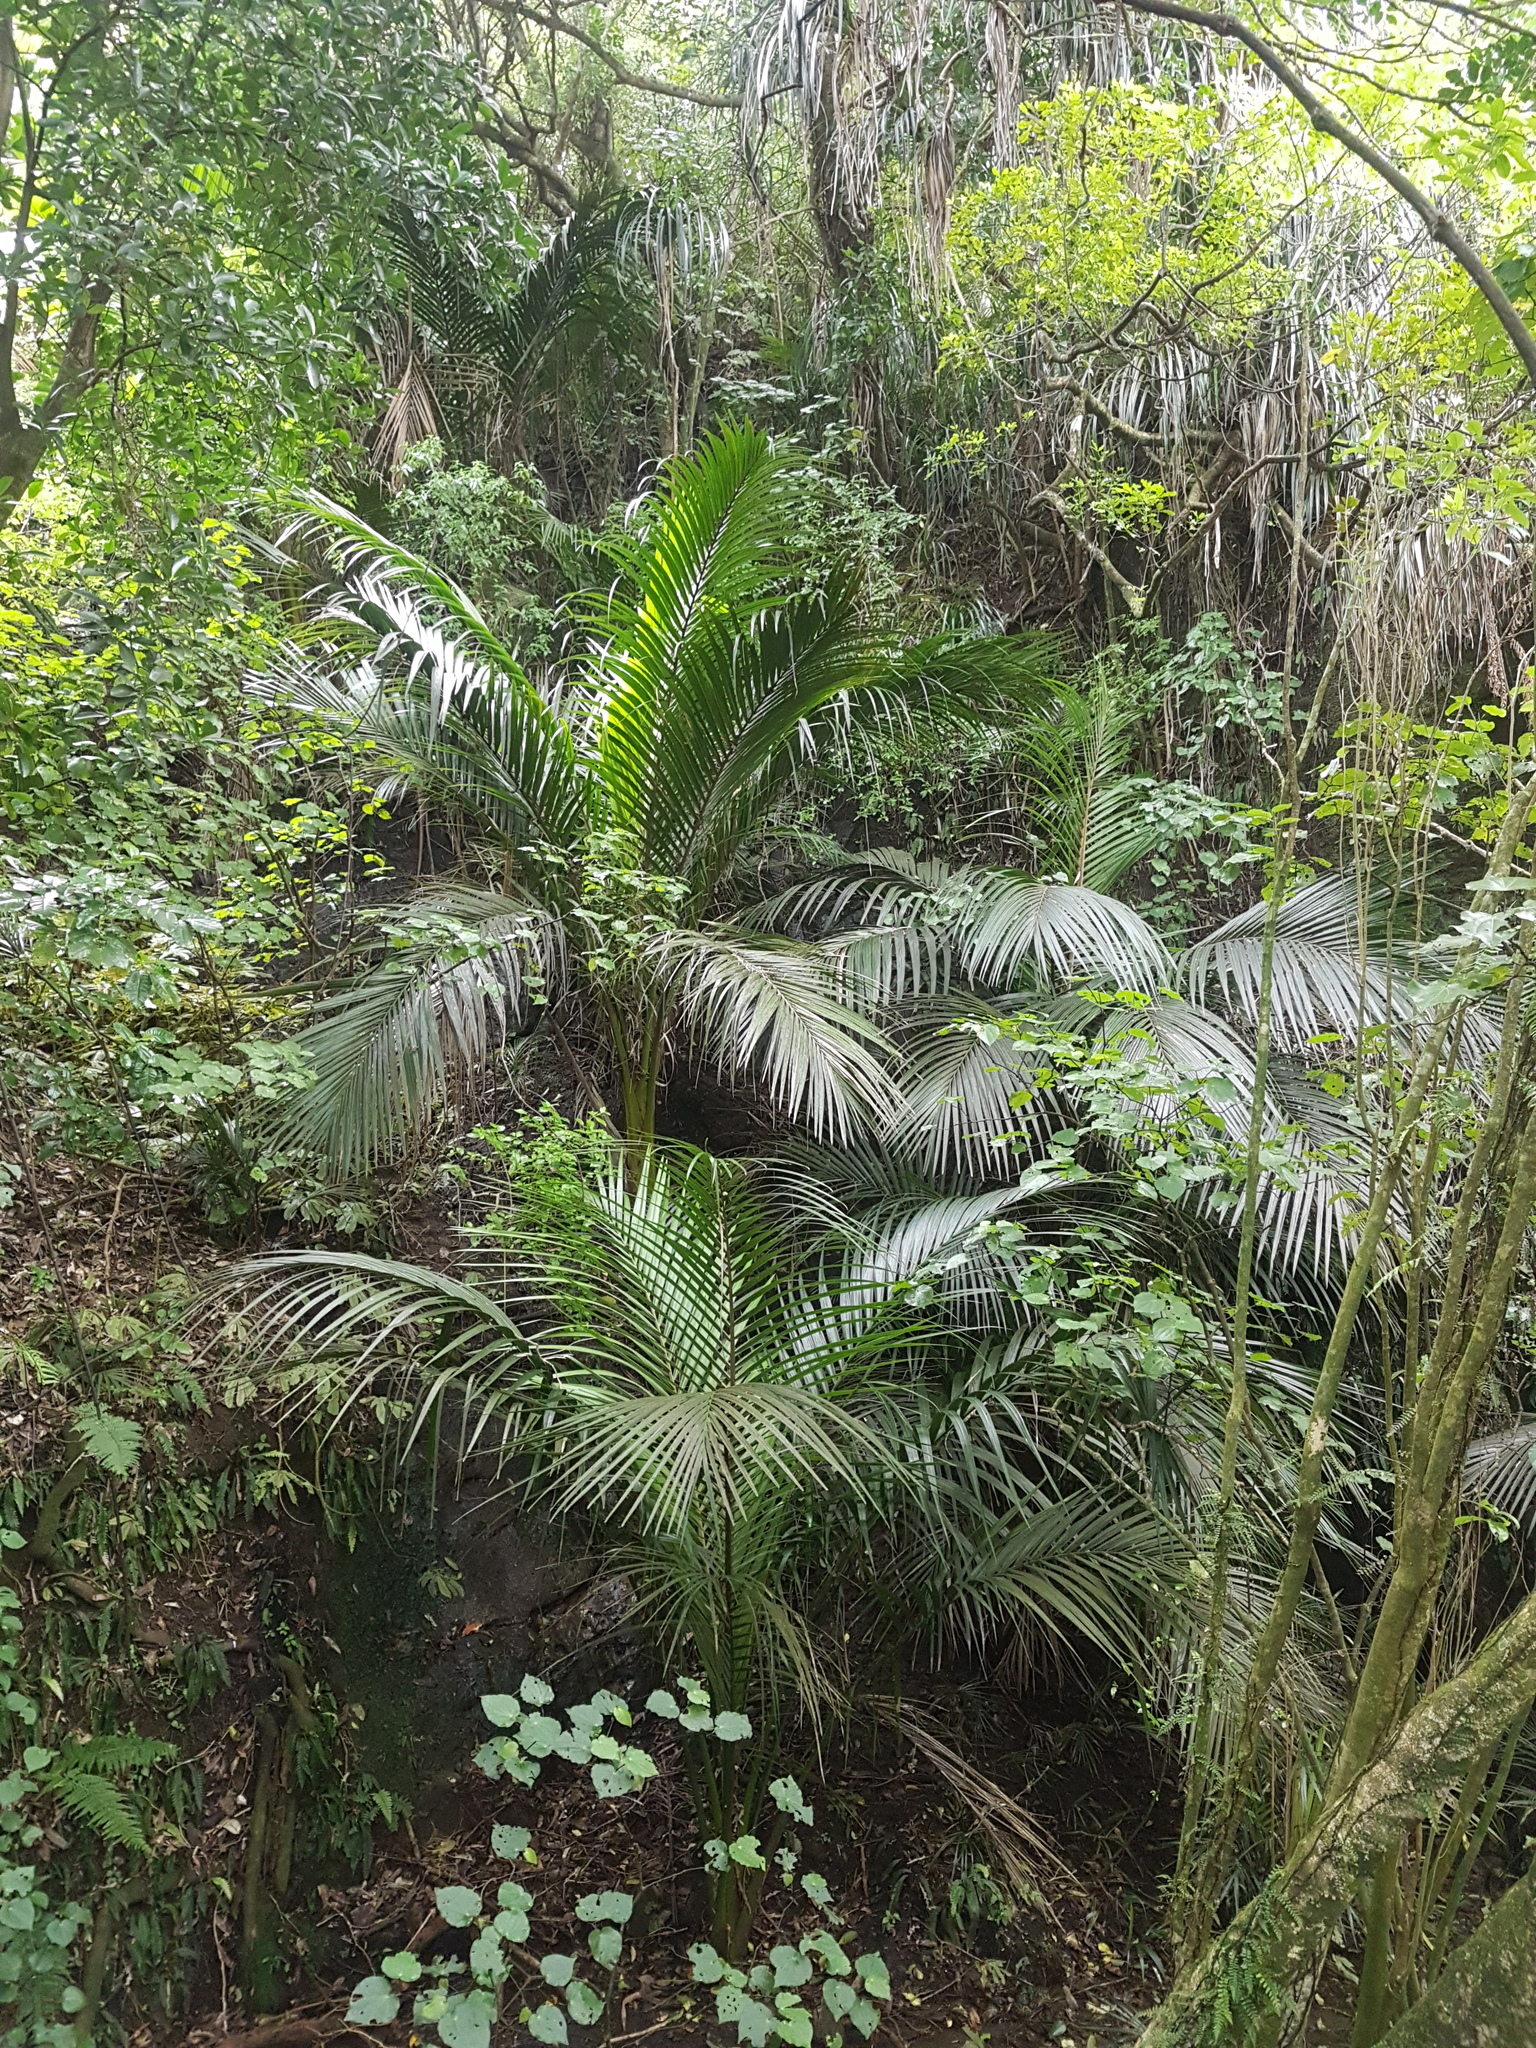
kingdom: Plantae
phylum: Tracheophyta
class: Liliopsida
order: Arecales
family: Arecaceae
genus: Rhopalostylis
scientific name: Rhopalostylis sapida
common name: Feather-duster palm
